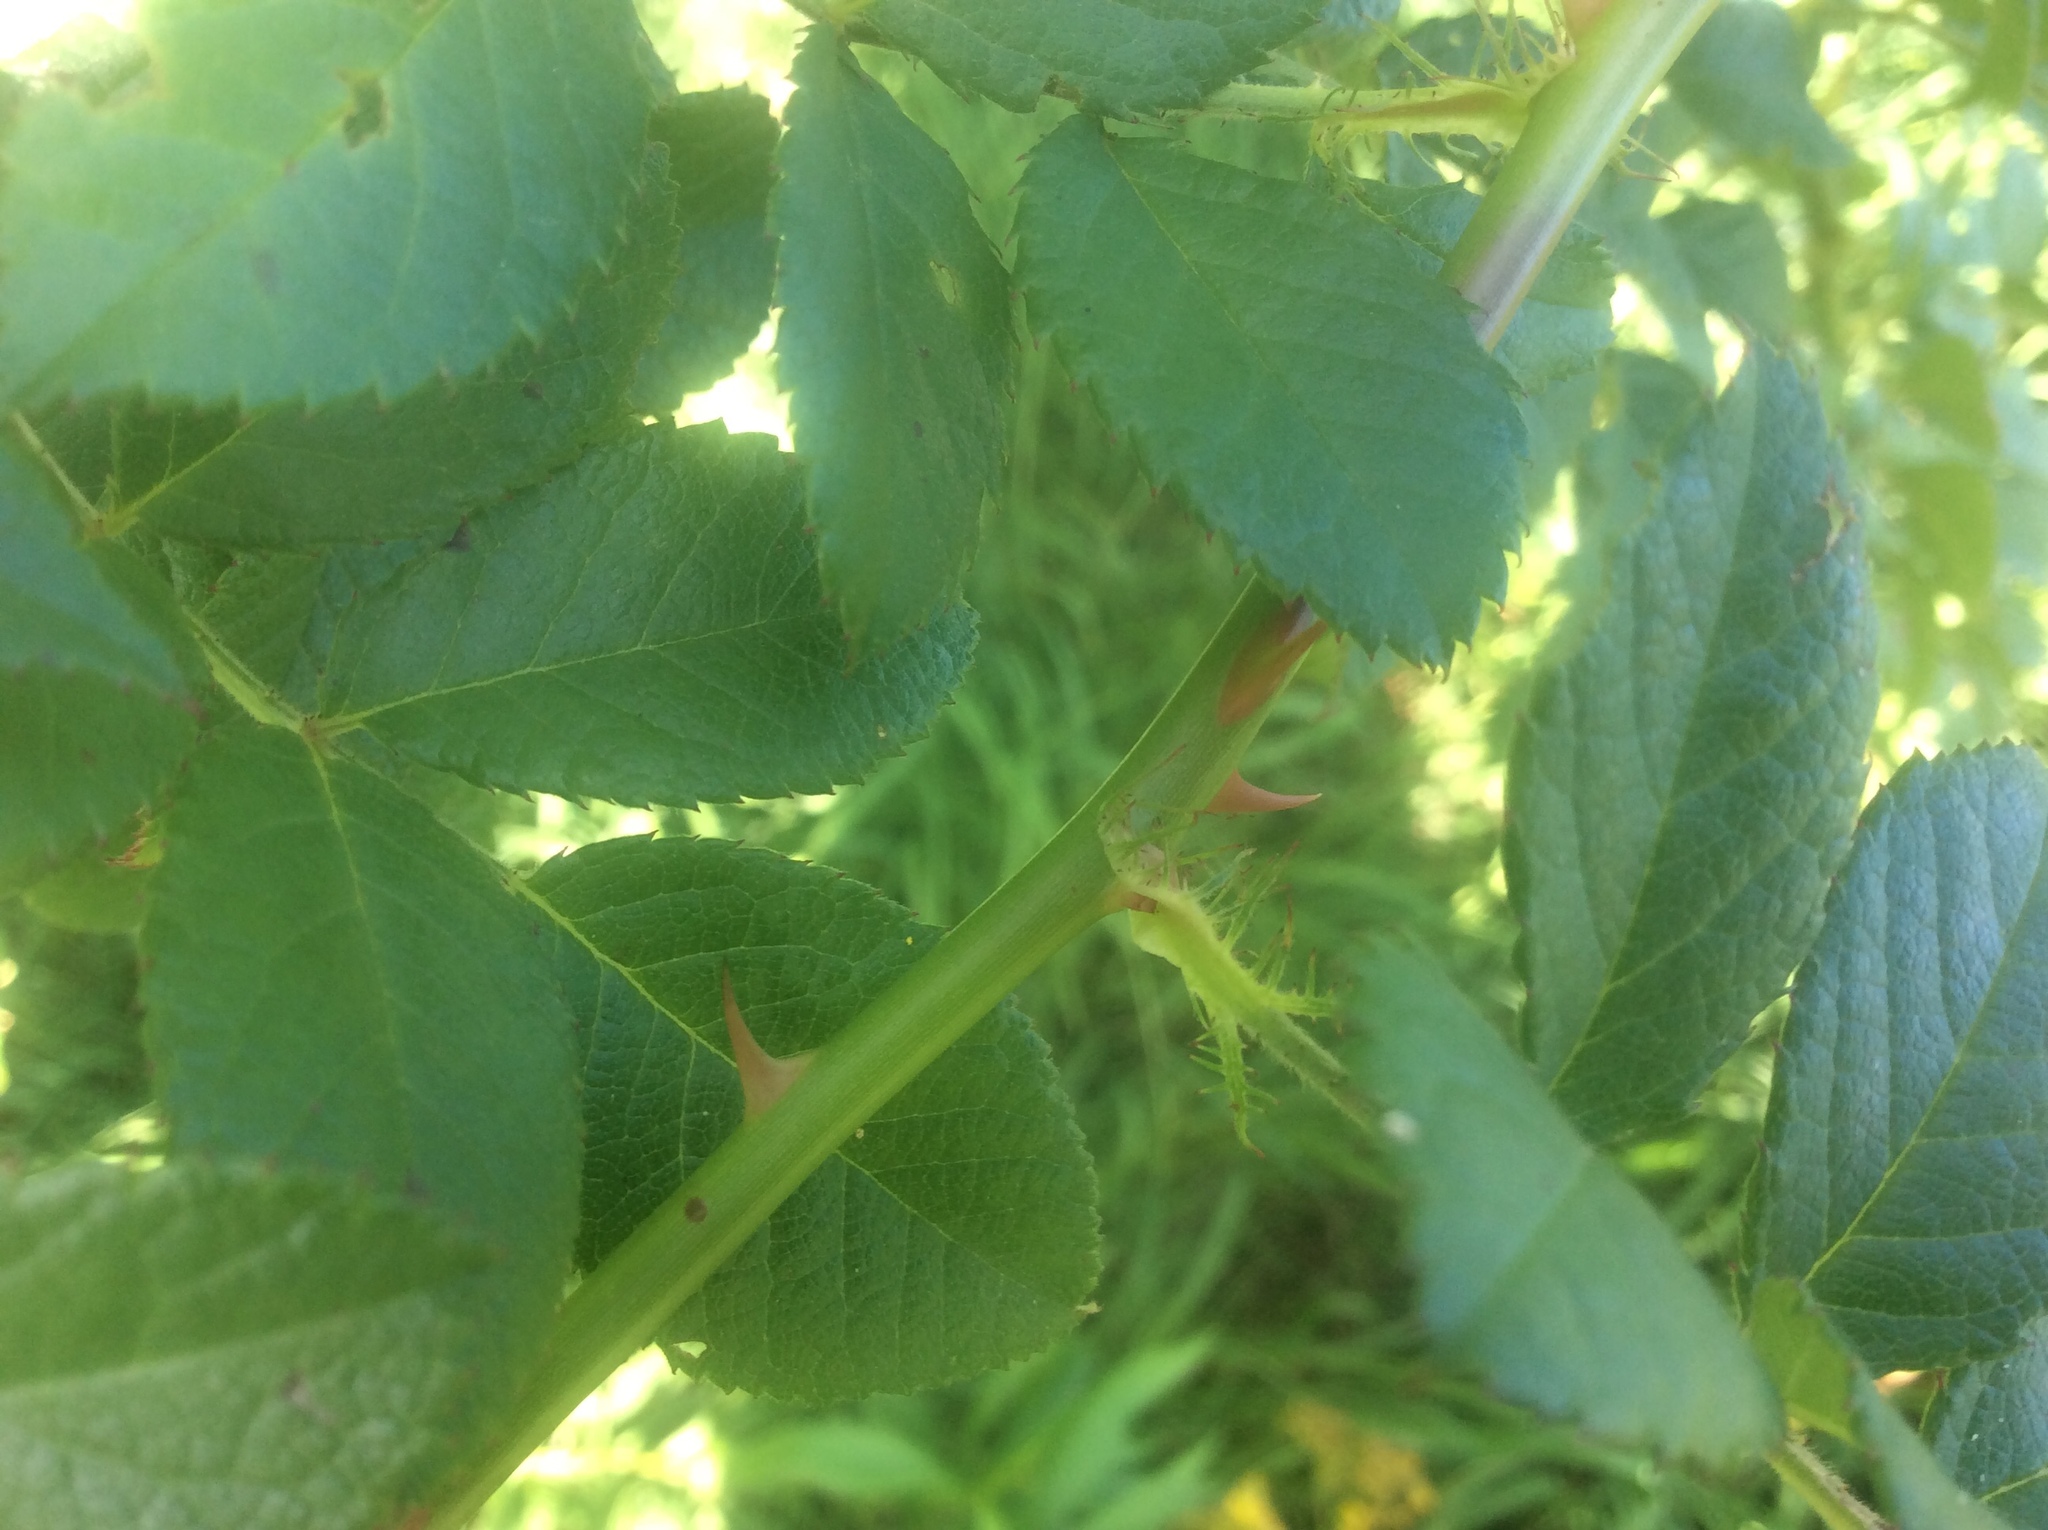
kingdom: Plantae
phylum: Tracheophyta
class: Magnoliopsida
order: Rosales
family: Rosaceae
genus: Rosa
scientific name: Rosa multiflora
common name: Multiflora rose
